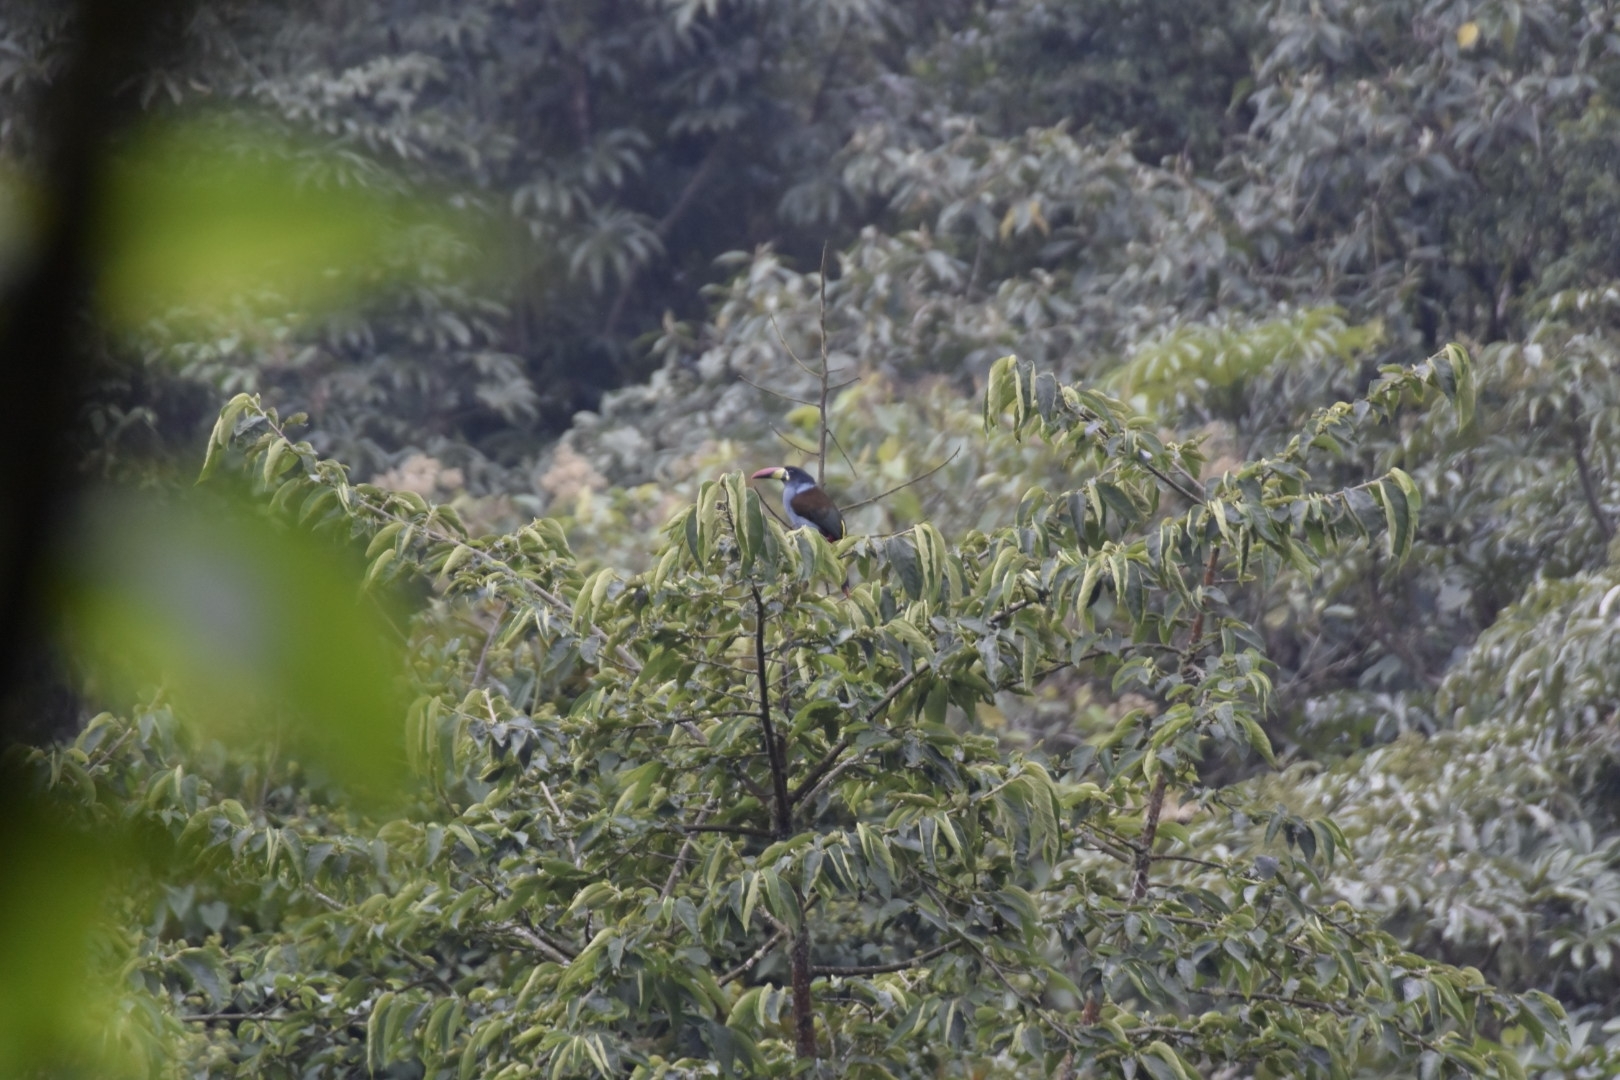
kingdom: Animalia
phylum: Chordata
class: Aves
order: Piciformes
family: Ramphastidae
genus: Andigena
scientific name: Andigena hypoglauca
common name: Grey-breasted mountain toucan
